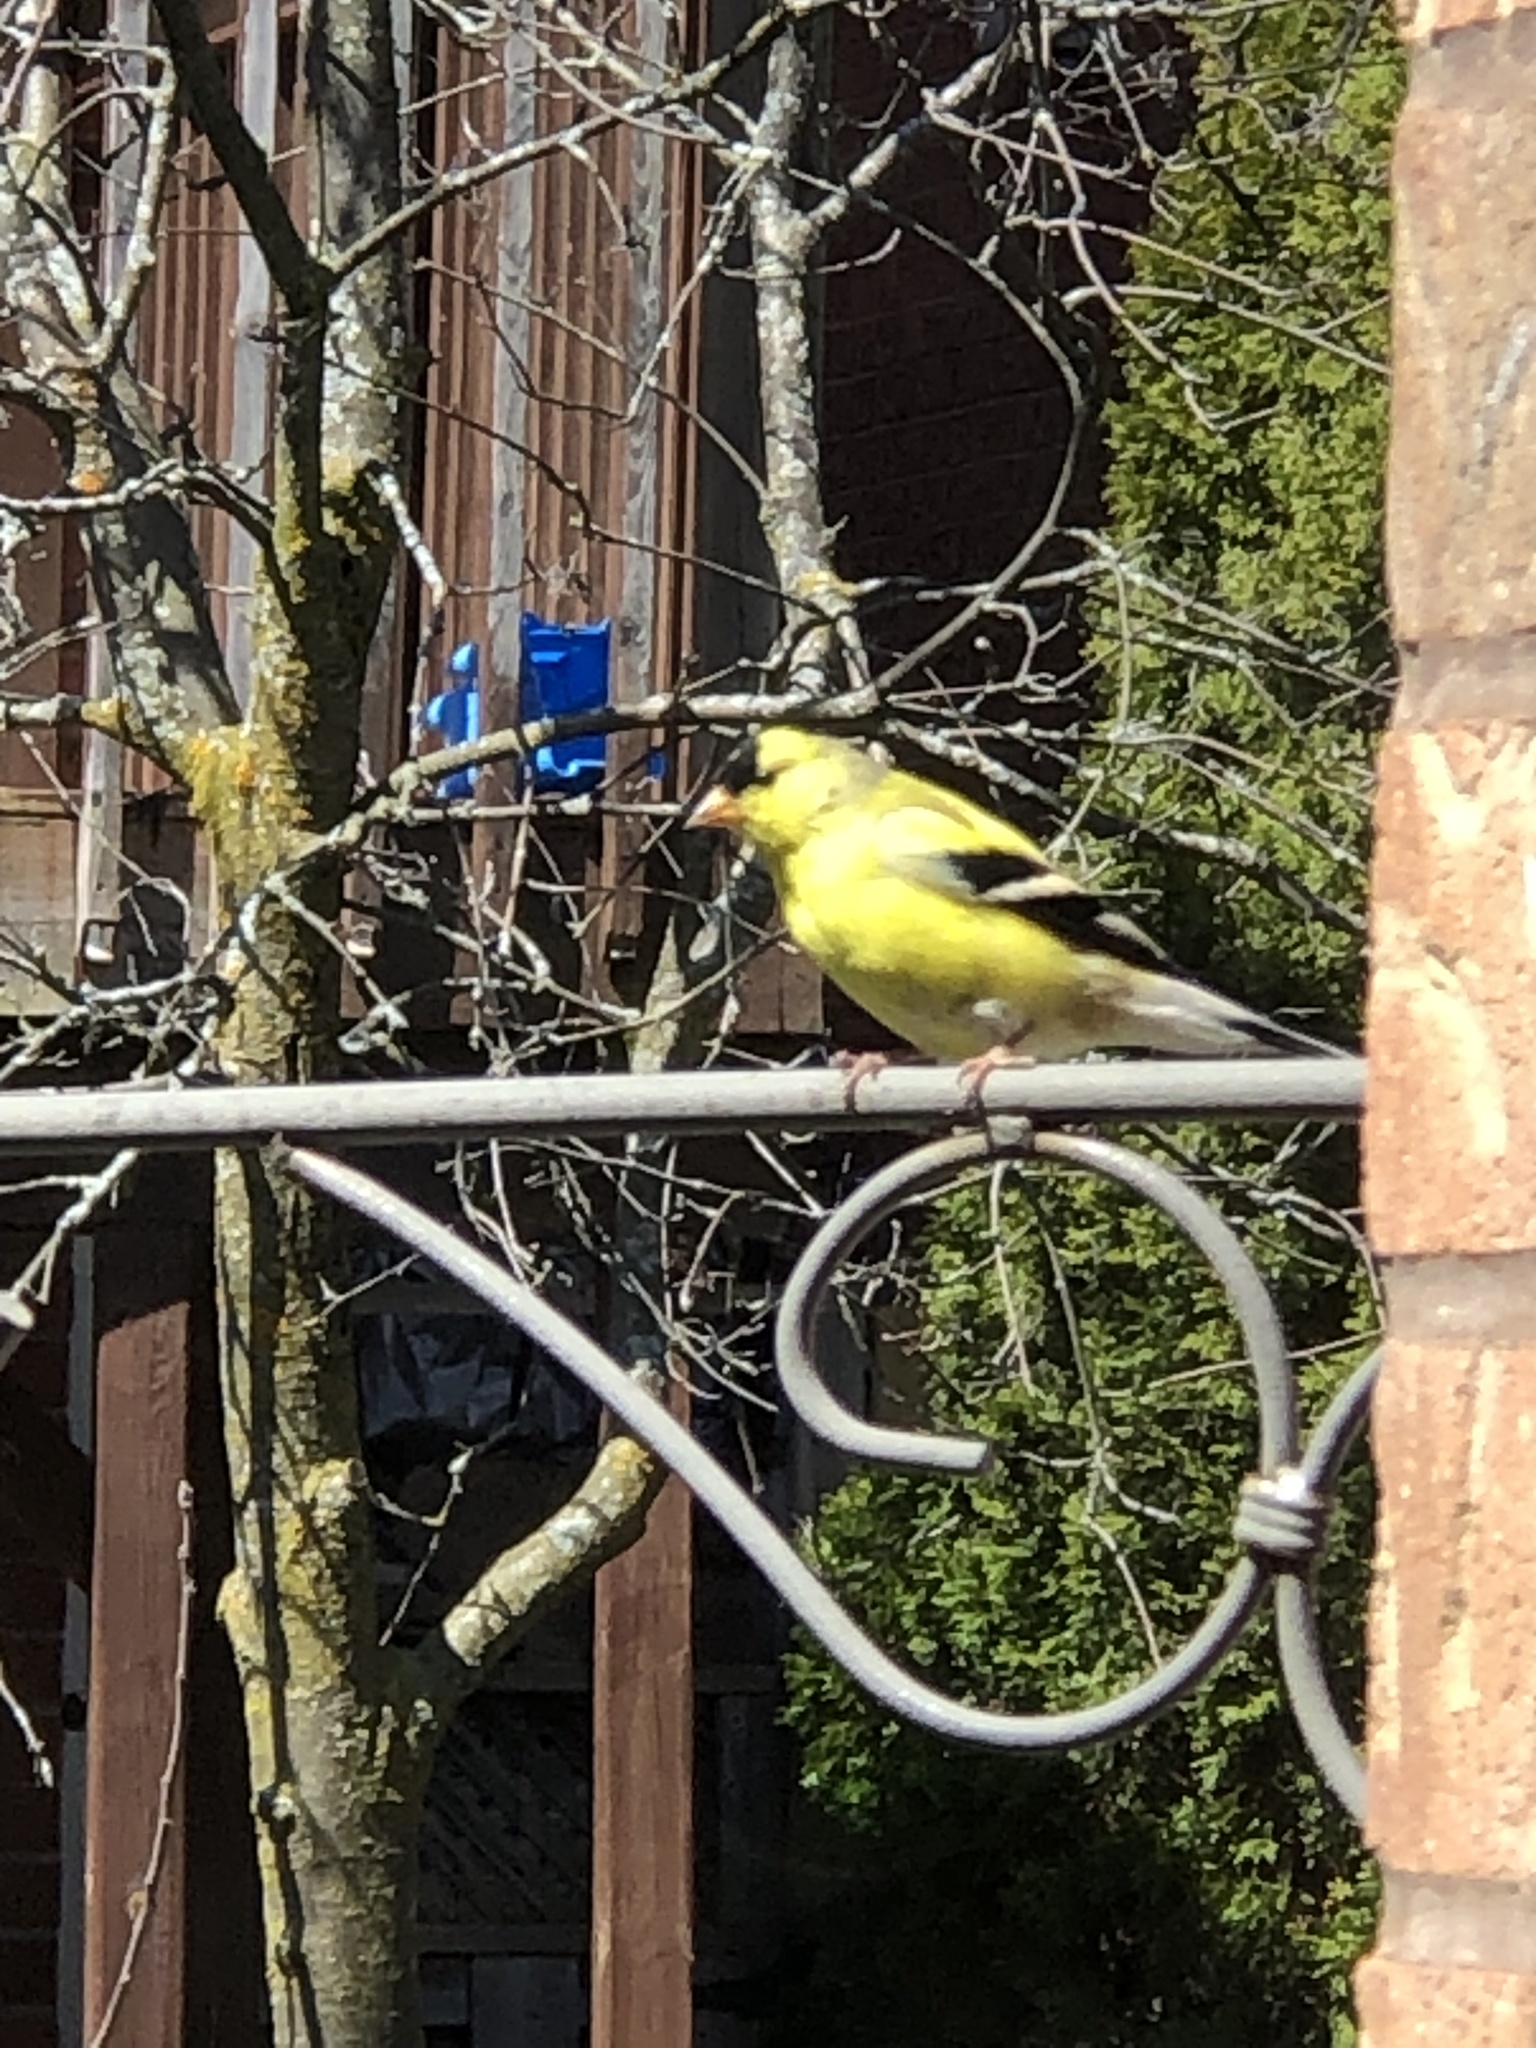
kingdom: Animalia
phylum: Chordata
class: Aves
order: Passeriformes
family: Fringillidae
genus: Spinus
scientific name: Spinus tristis
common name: American goldfinch
